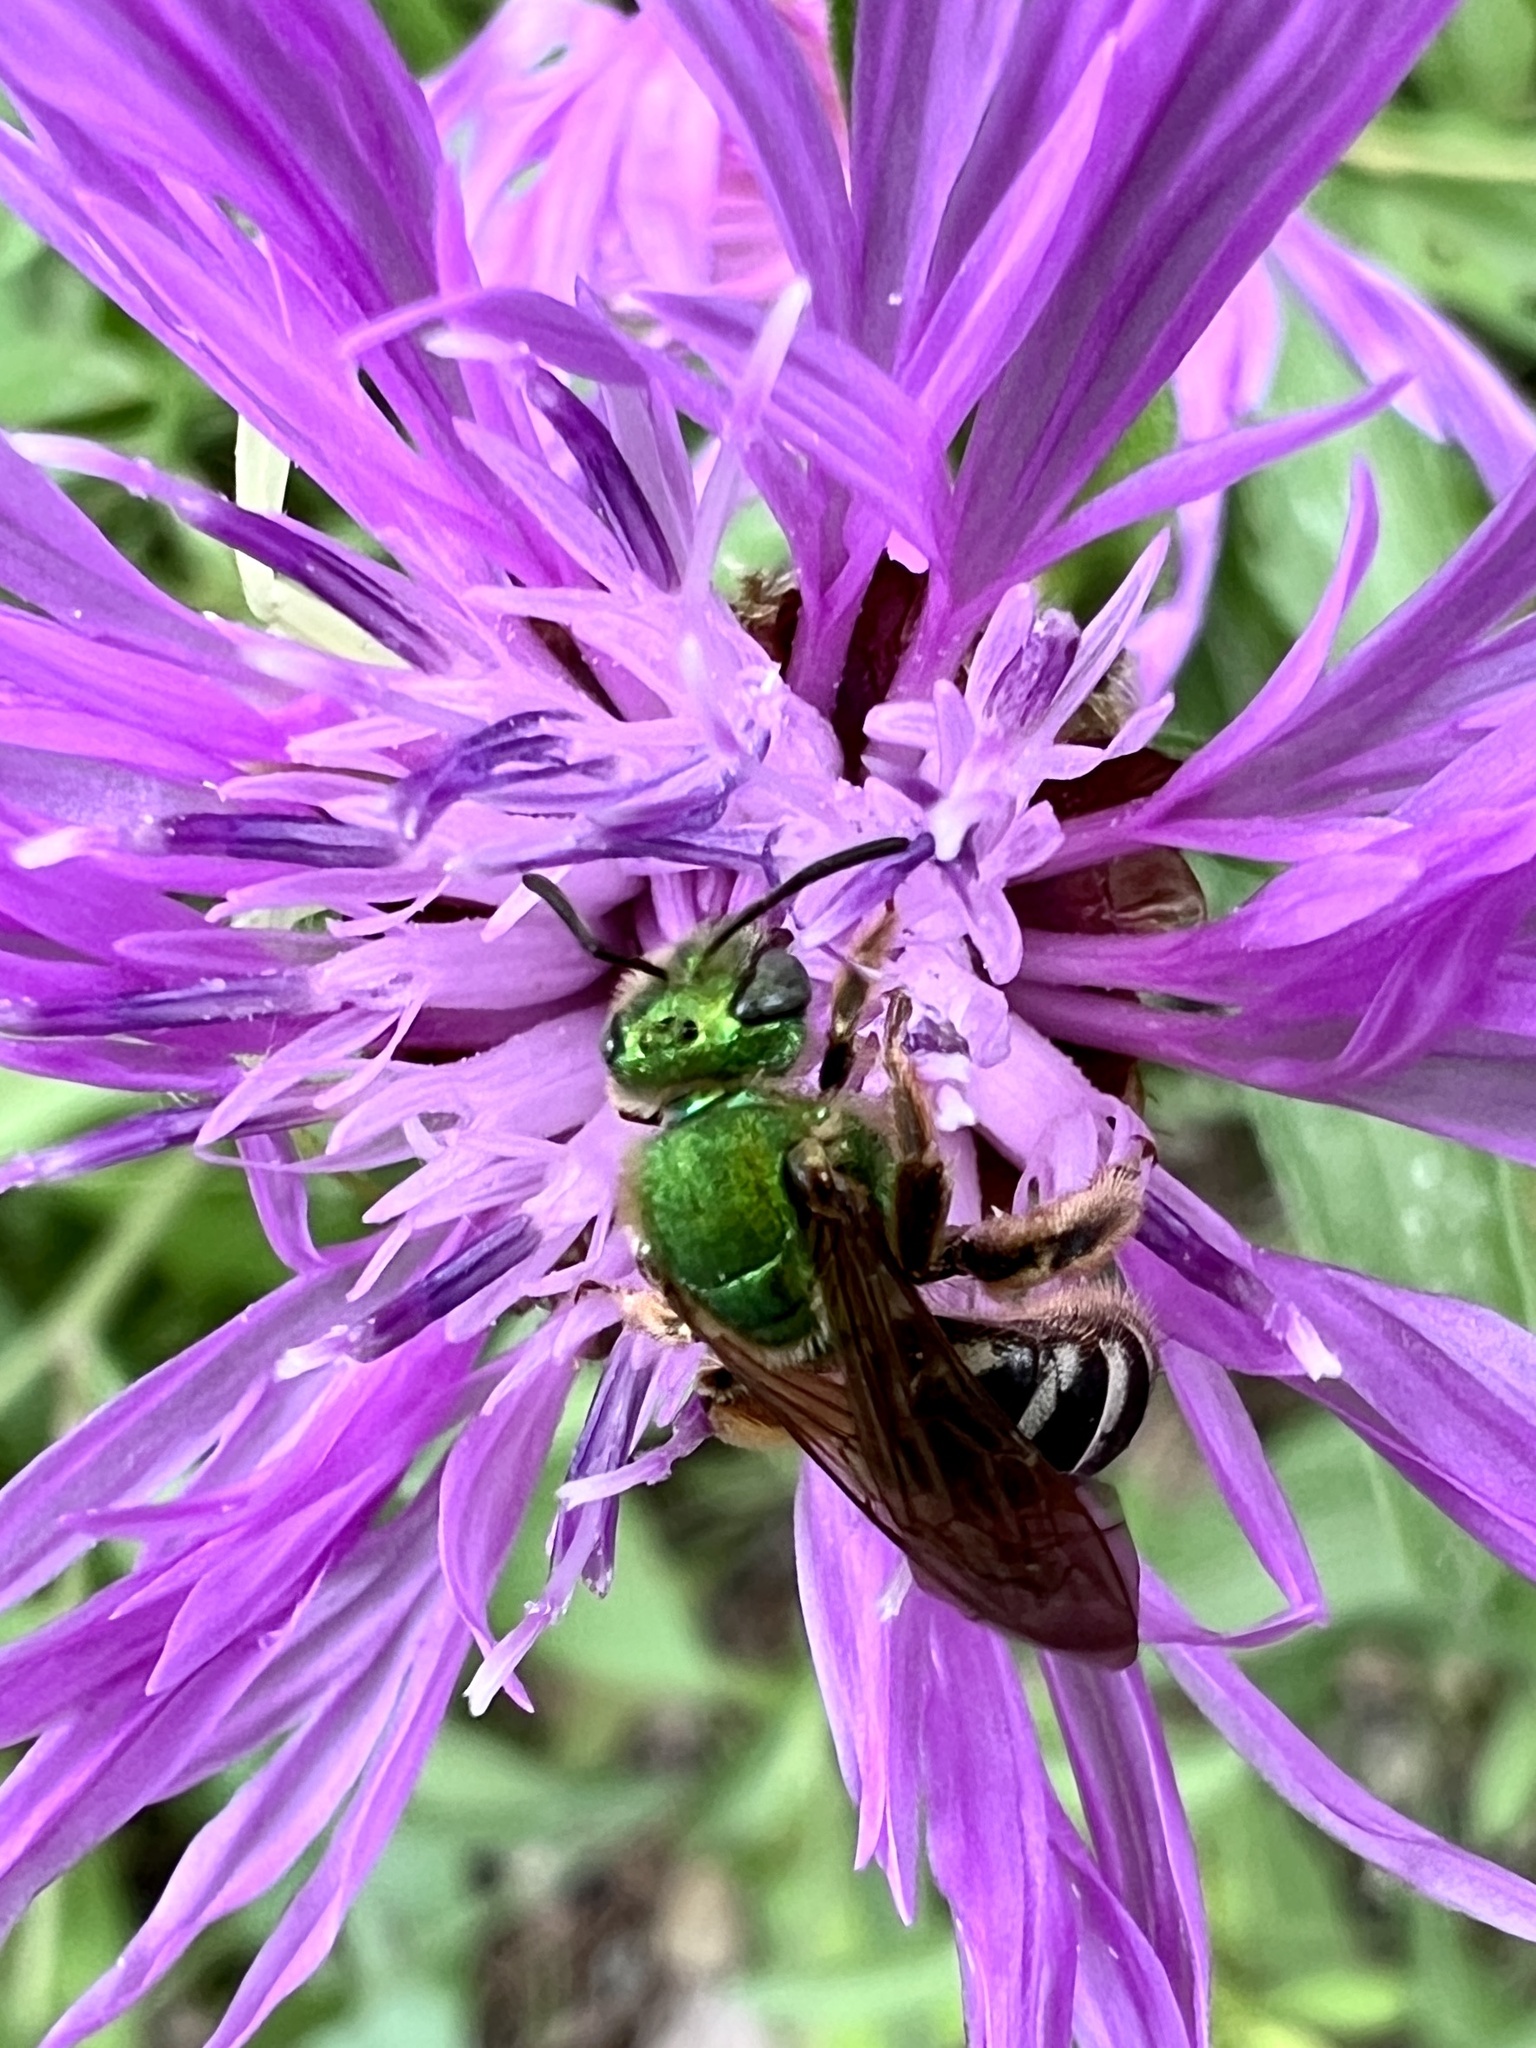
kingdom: Animalia
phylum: Arthropoda
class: Insecta
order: Hymenoptera
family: Halictidae
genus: Agapostemon
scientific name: Agapostemon virescens
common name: Bicolored striped sweat bee
